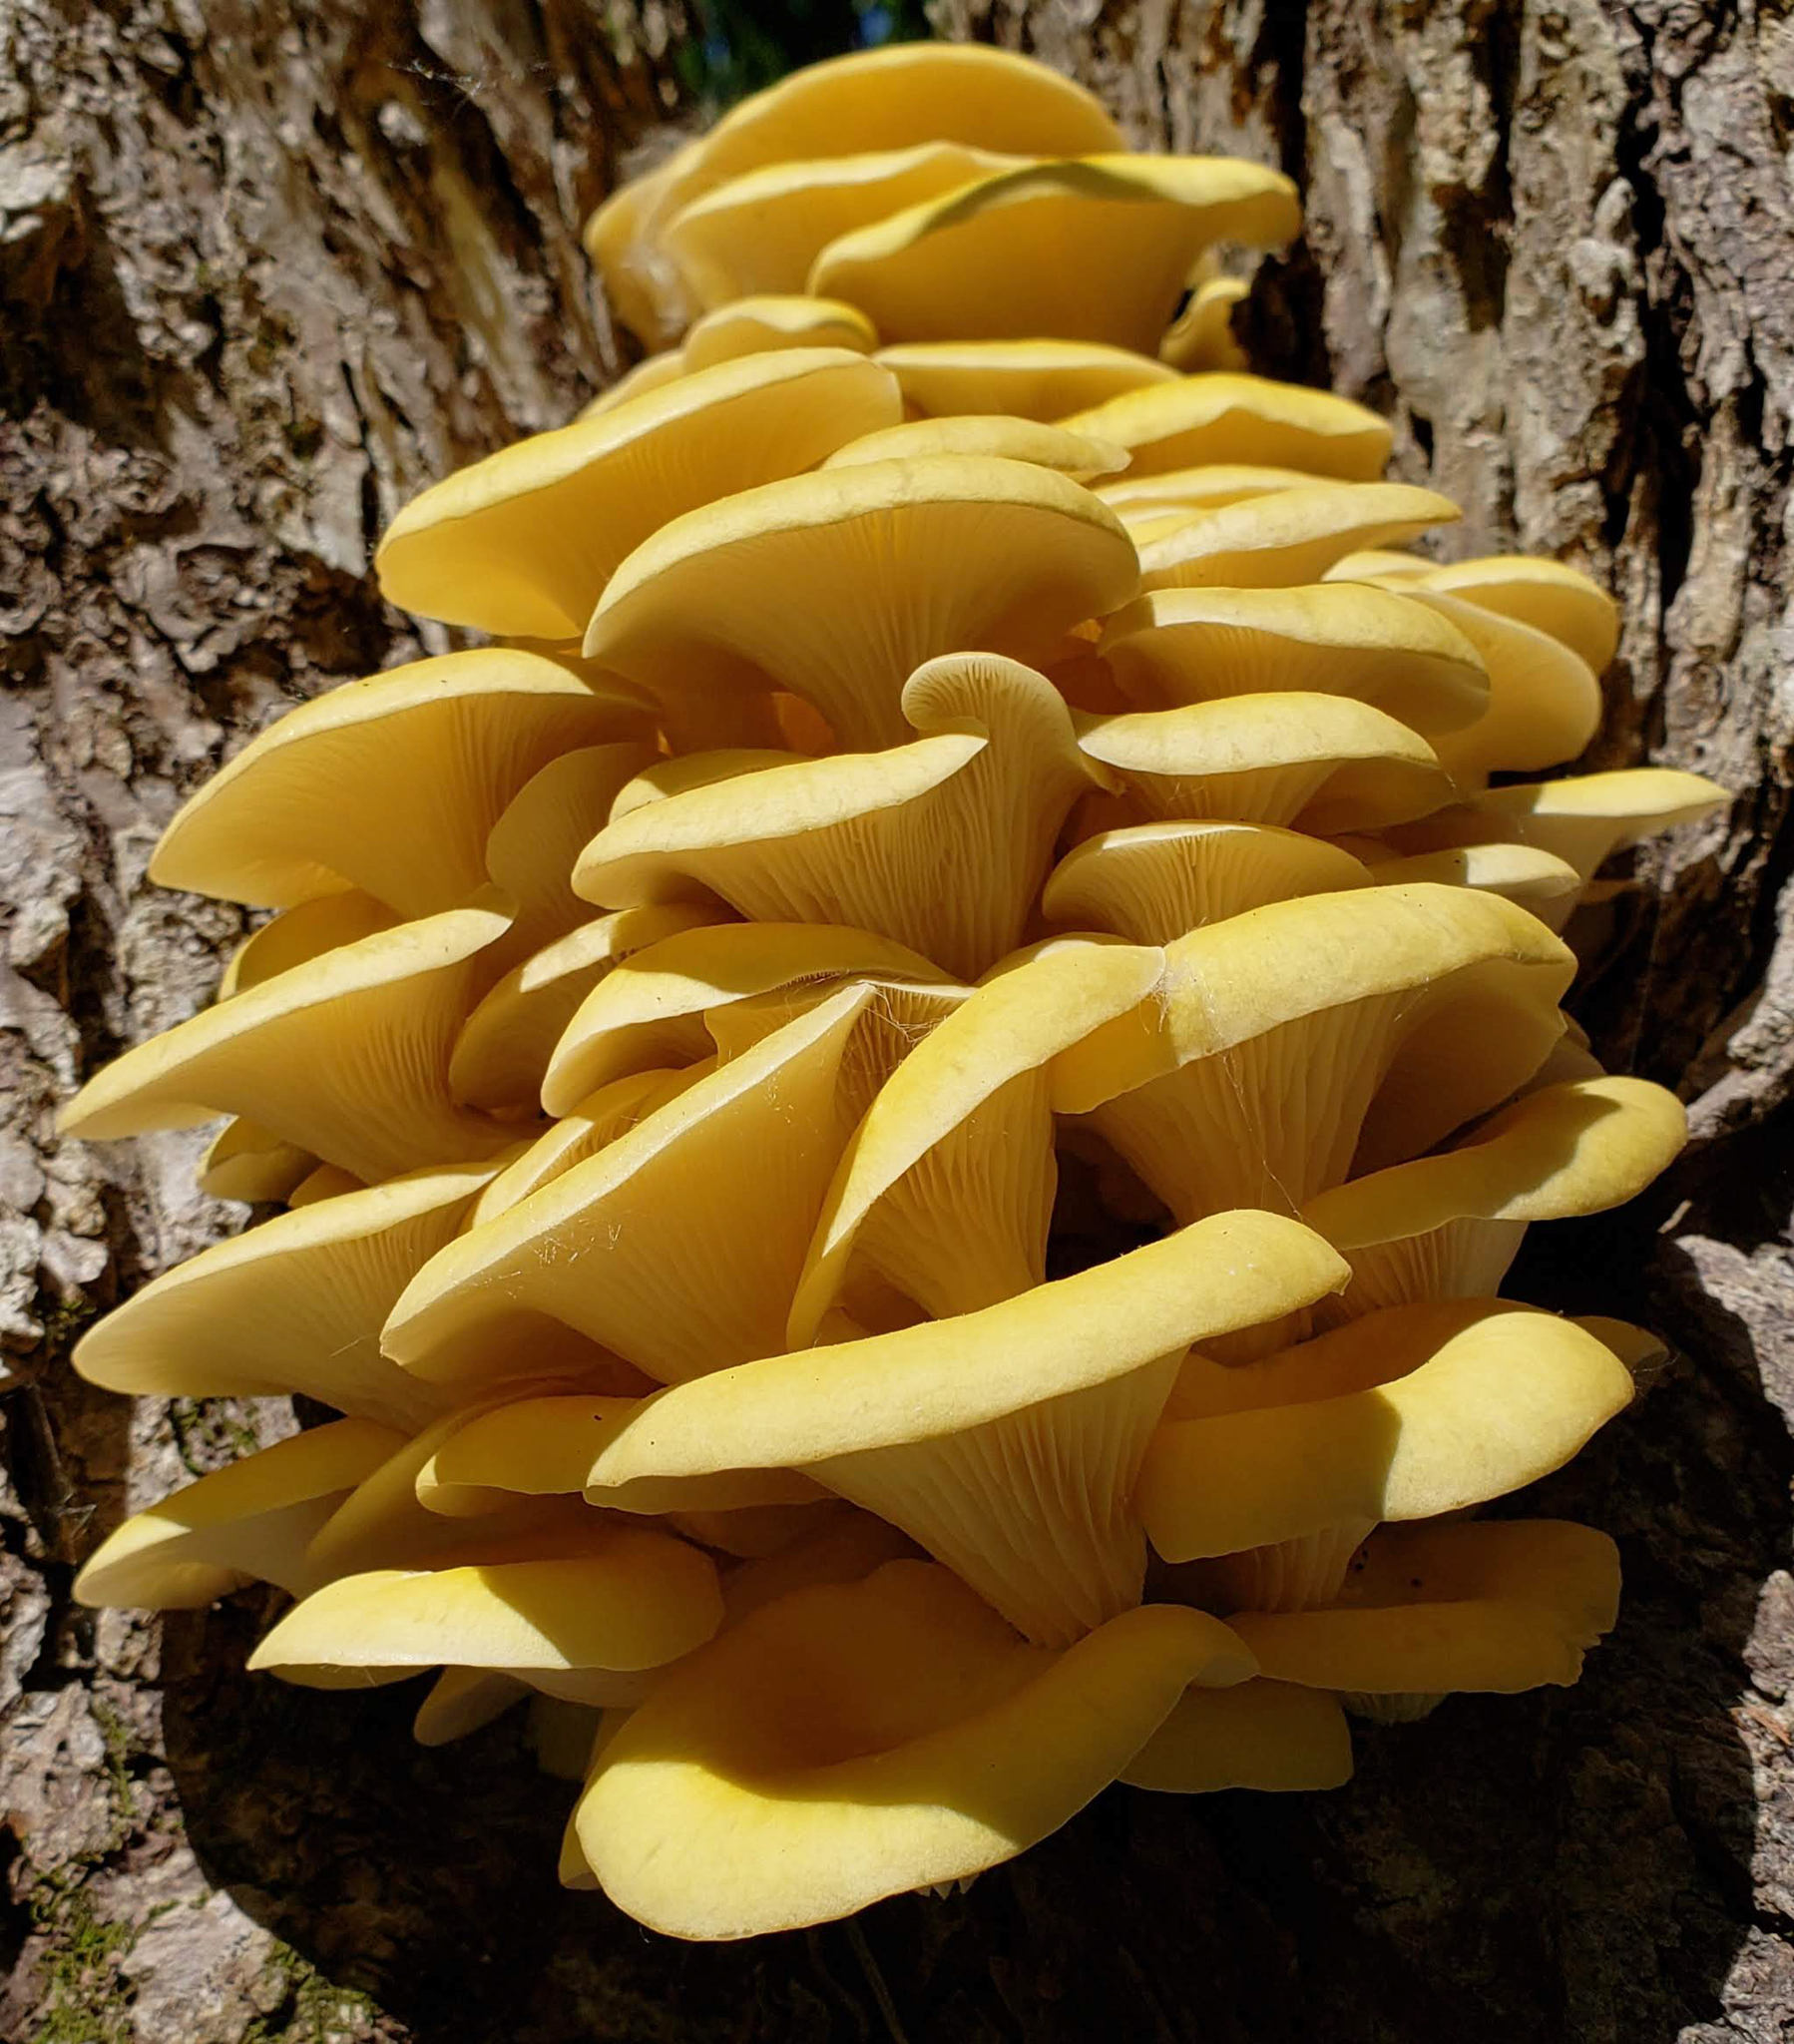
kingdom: Fungi
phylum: Basidiomycota
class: Agaricomycetes
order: Agaricales
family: Pleurotaceae
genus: Pleurotus
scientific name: Pleurotus citrinopileatus
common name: Golden oyster mushroom
